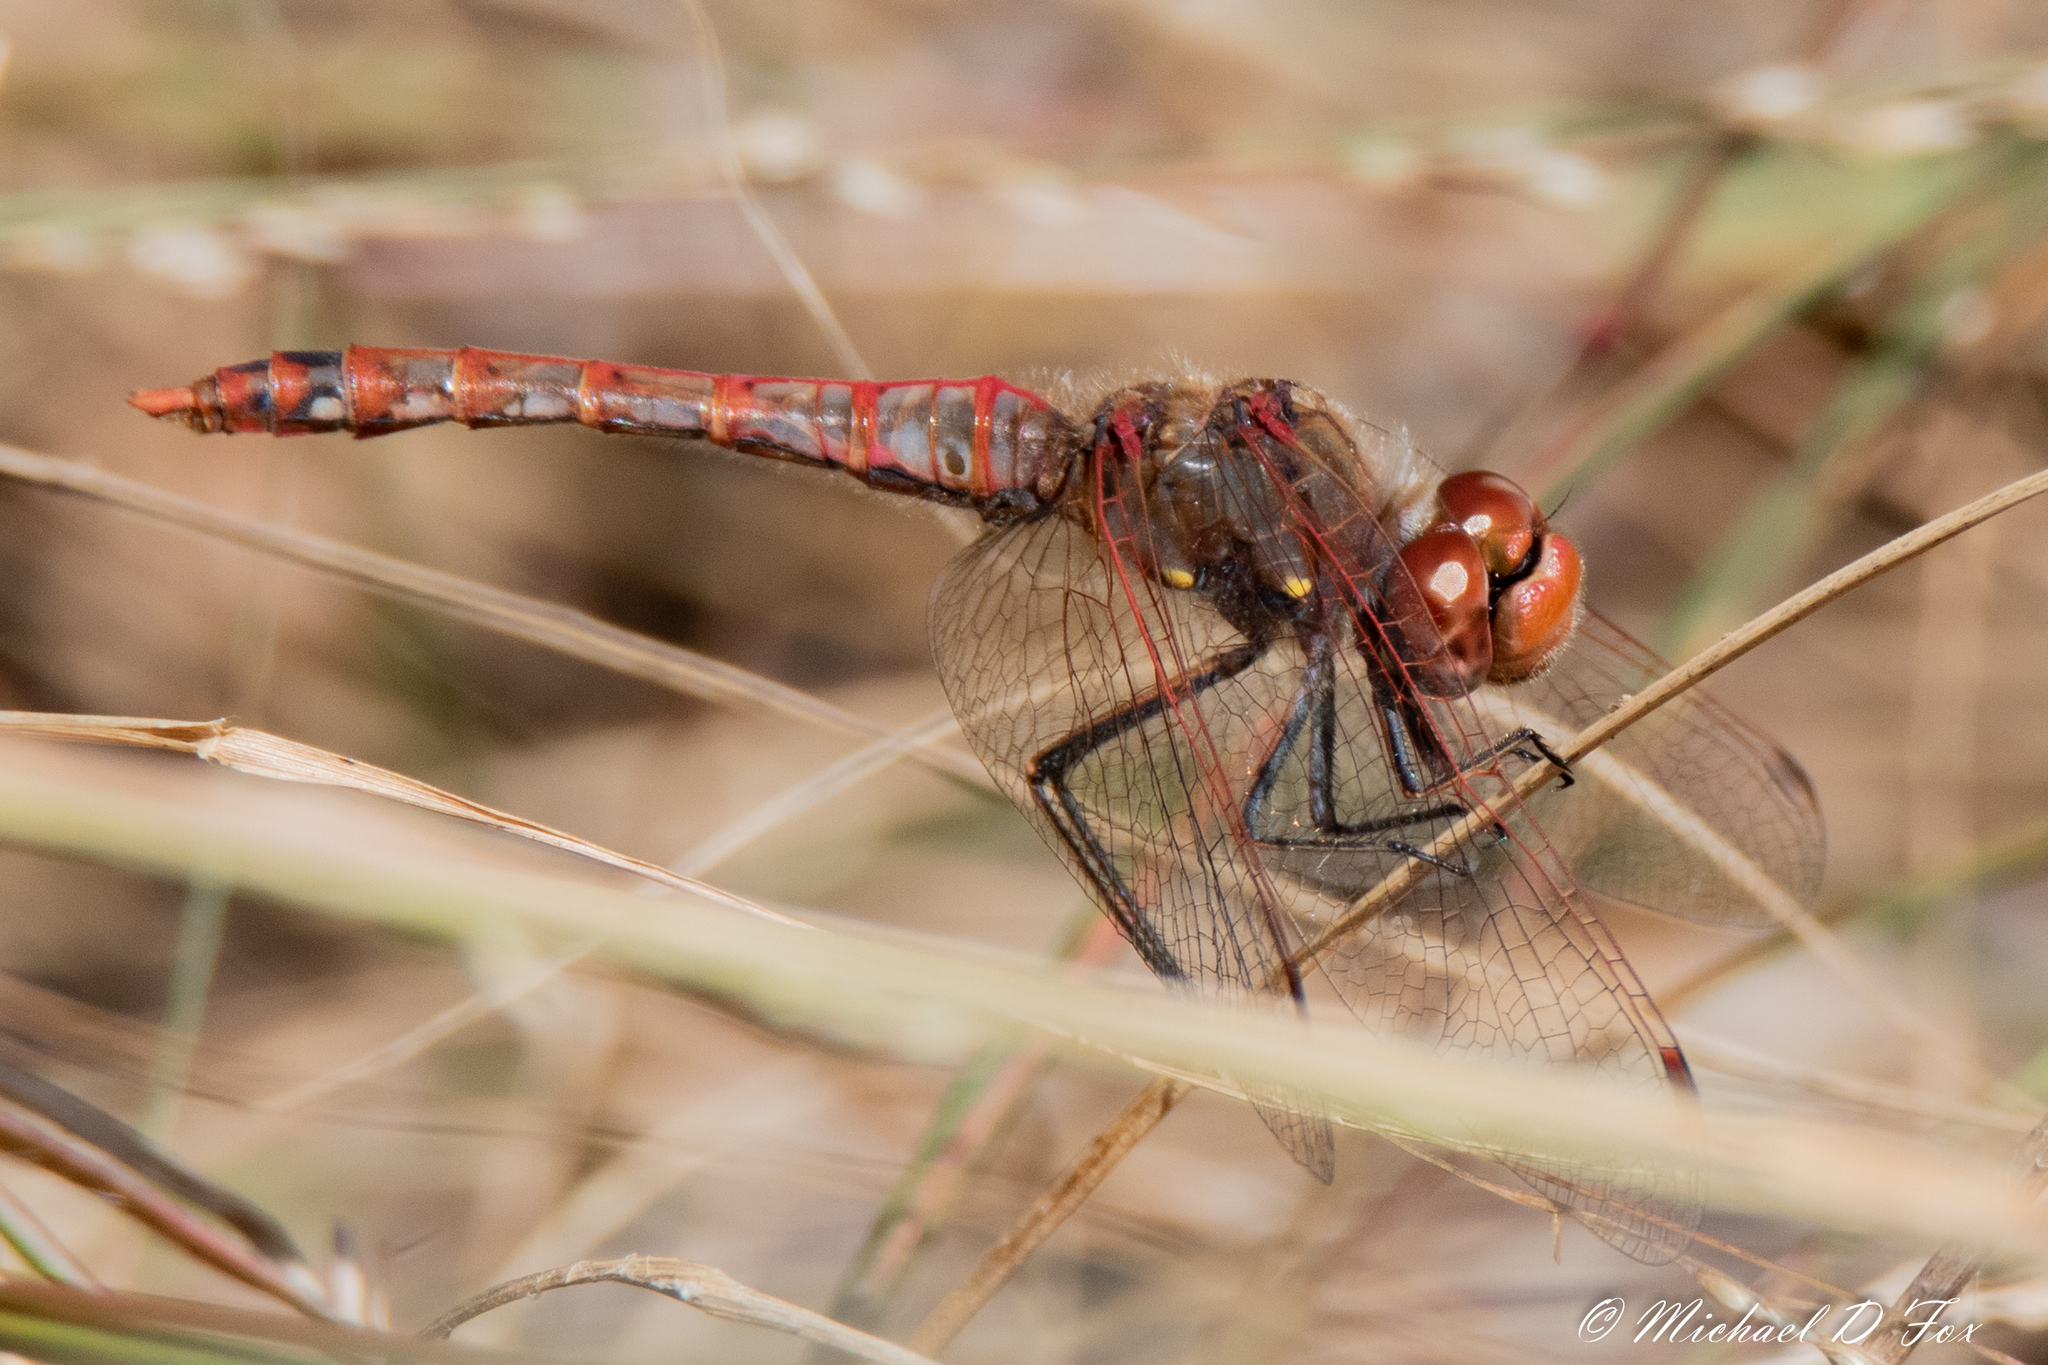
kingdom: Animalia
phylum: Arthropoda
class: Insecta
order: Odonata
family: Libellulidae
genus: Sympetrum
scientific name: Sympetrum corruptum
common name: Variegated meadowhawk
